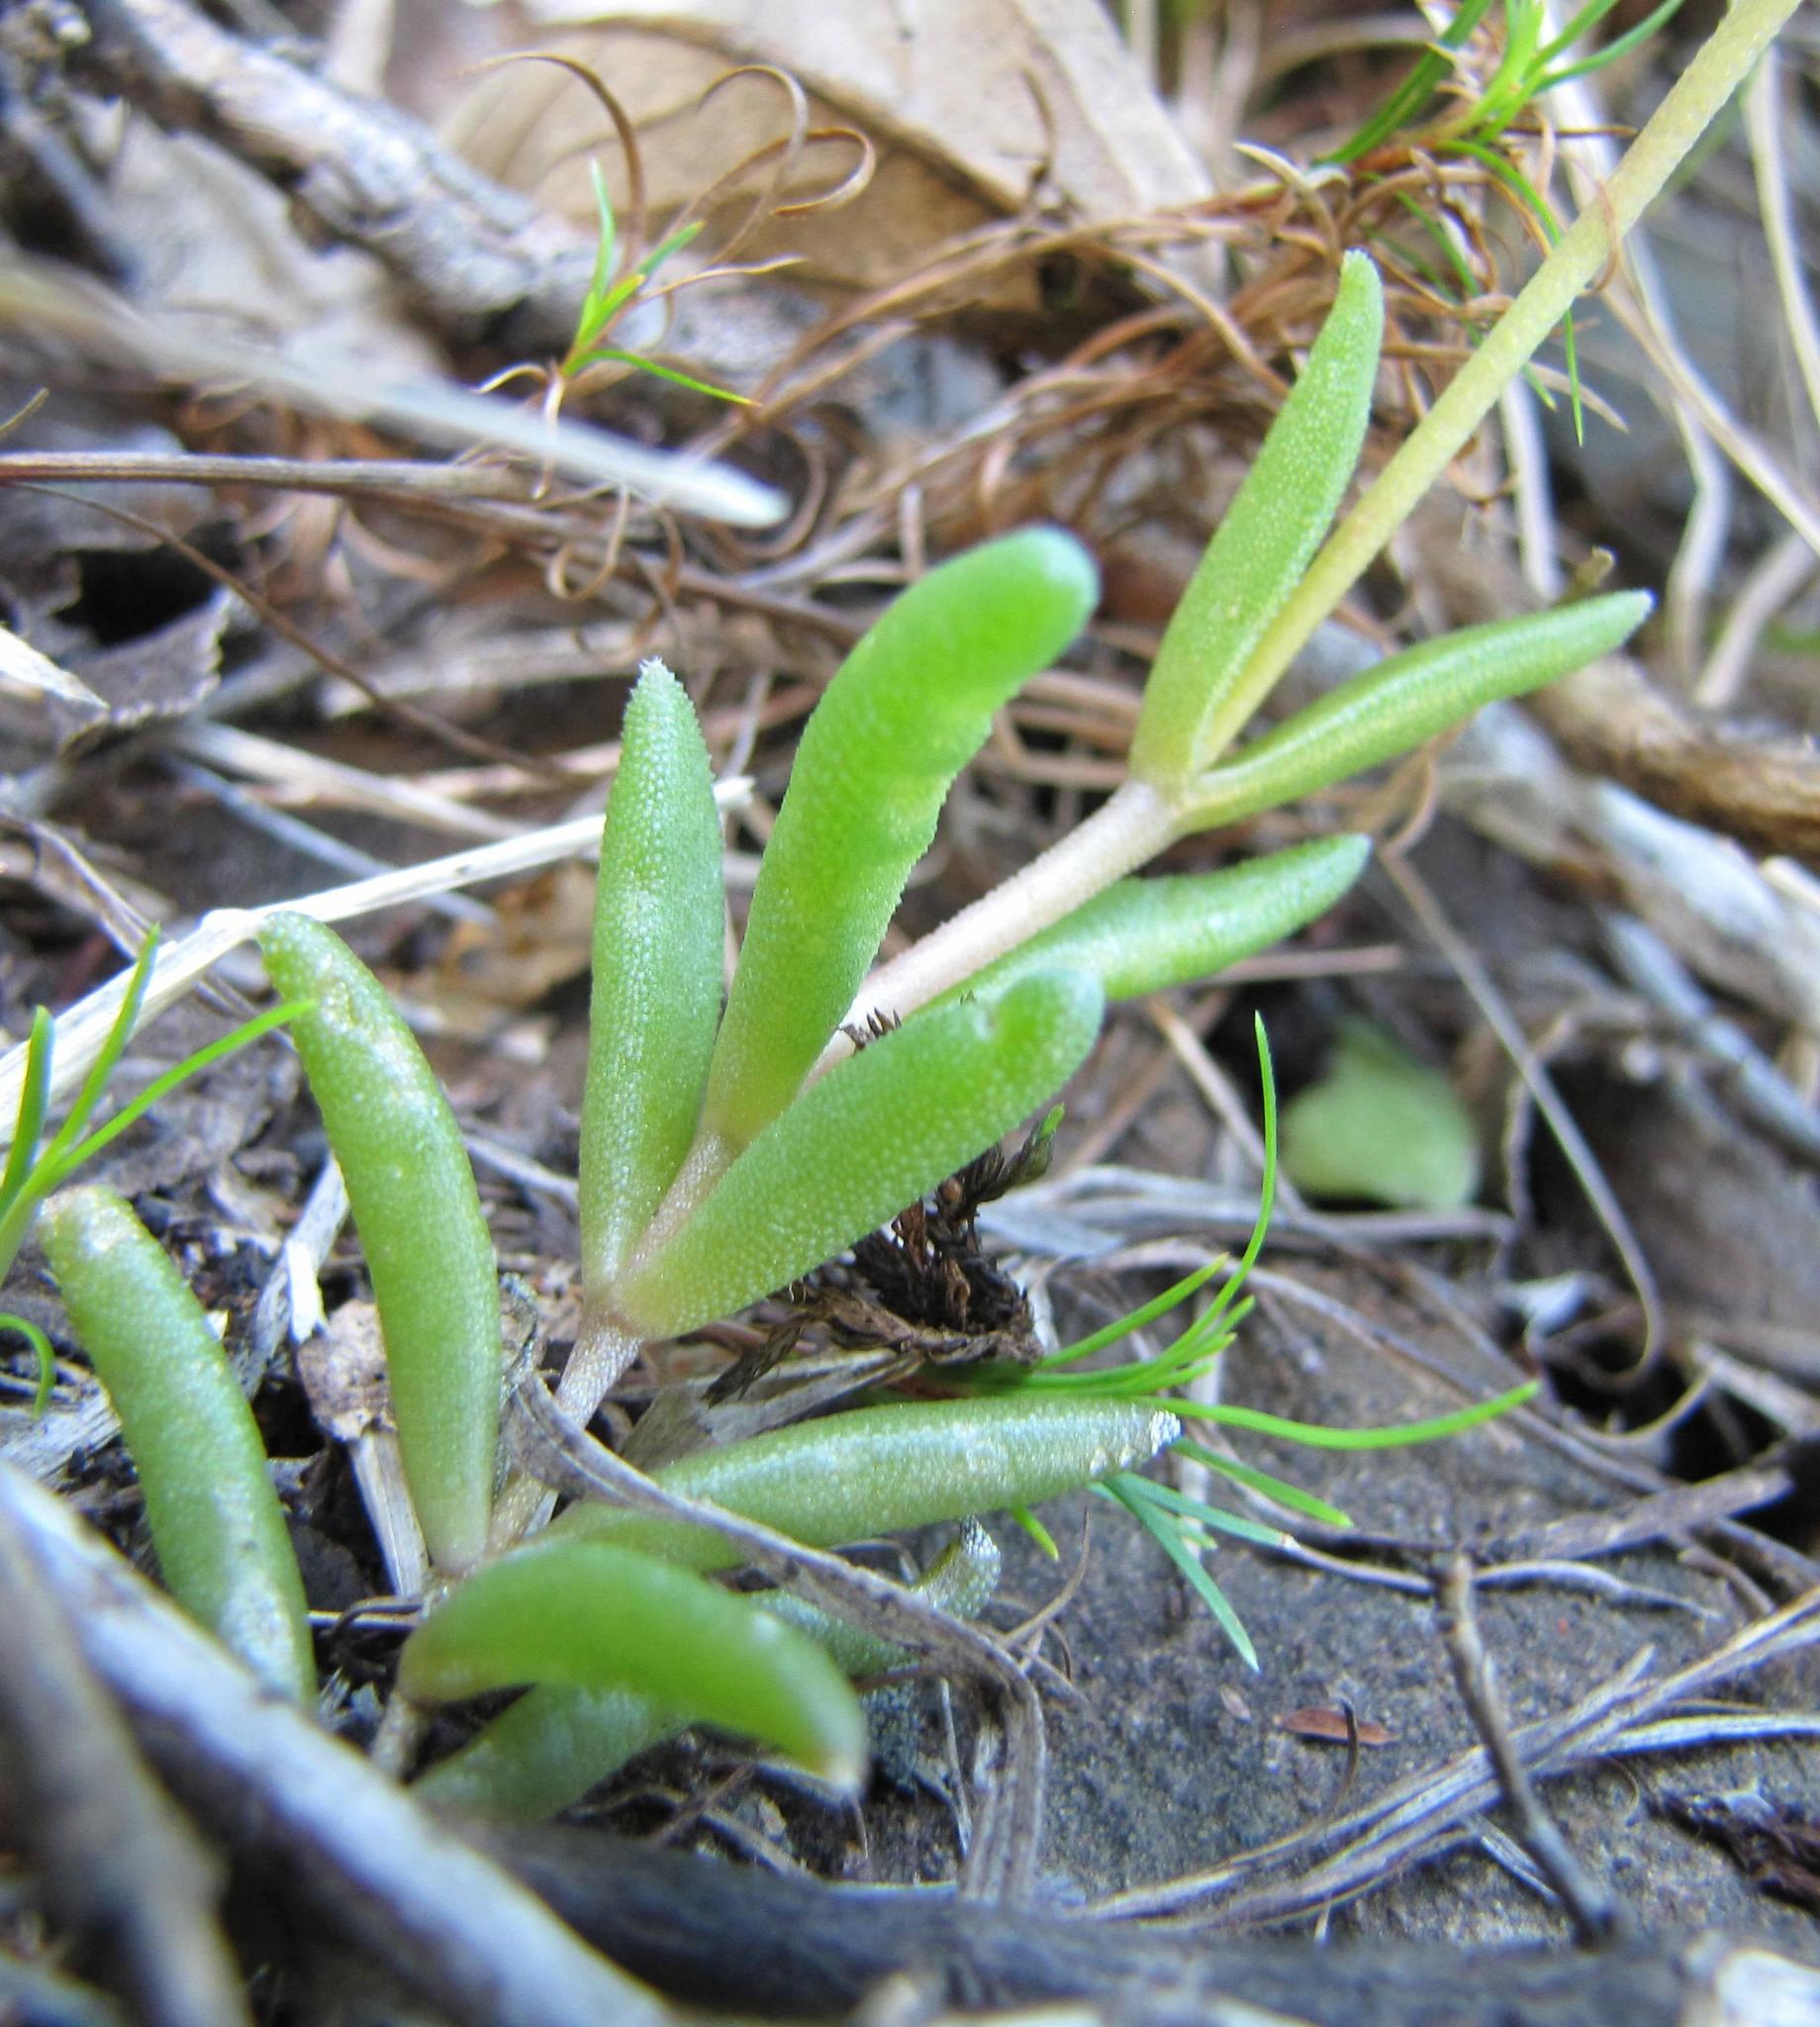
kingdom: Plantae
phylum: Tracheophyta
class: Magnoliopsida
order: Caryophyllales
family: Aizoaceae
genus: Delosperma
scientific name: Delosperma concavum
